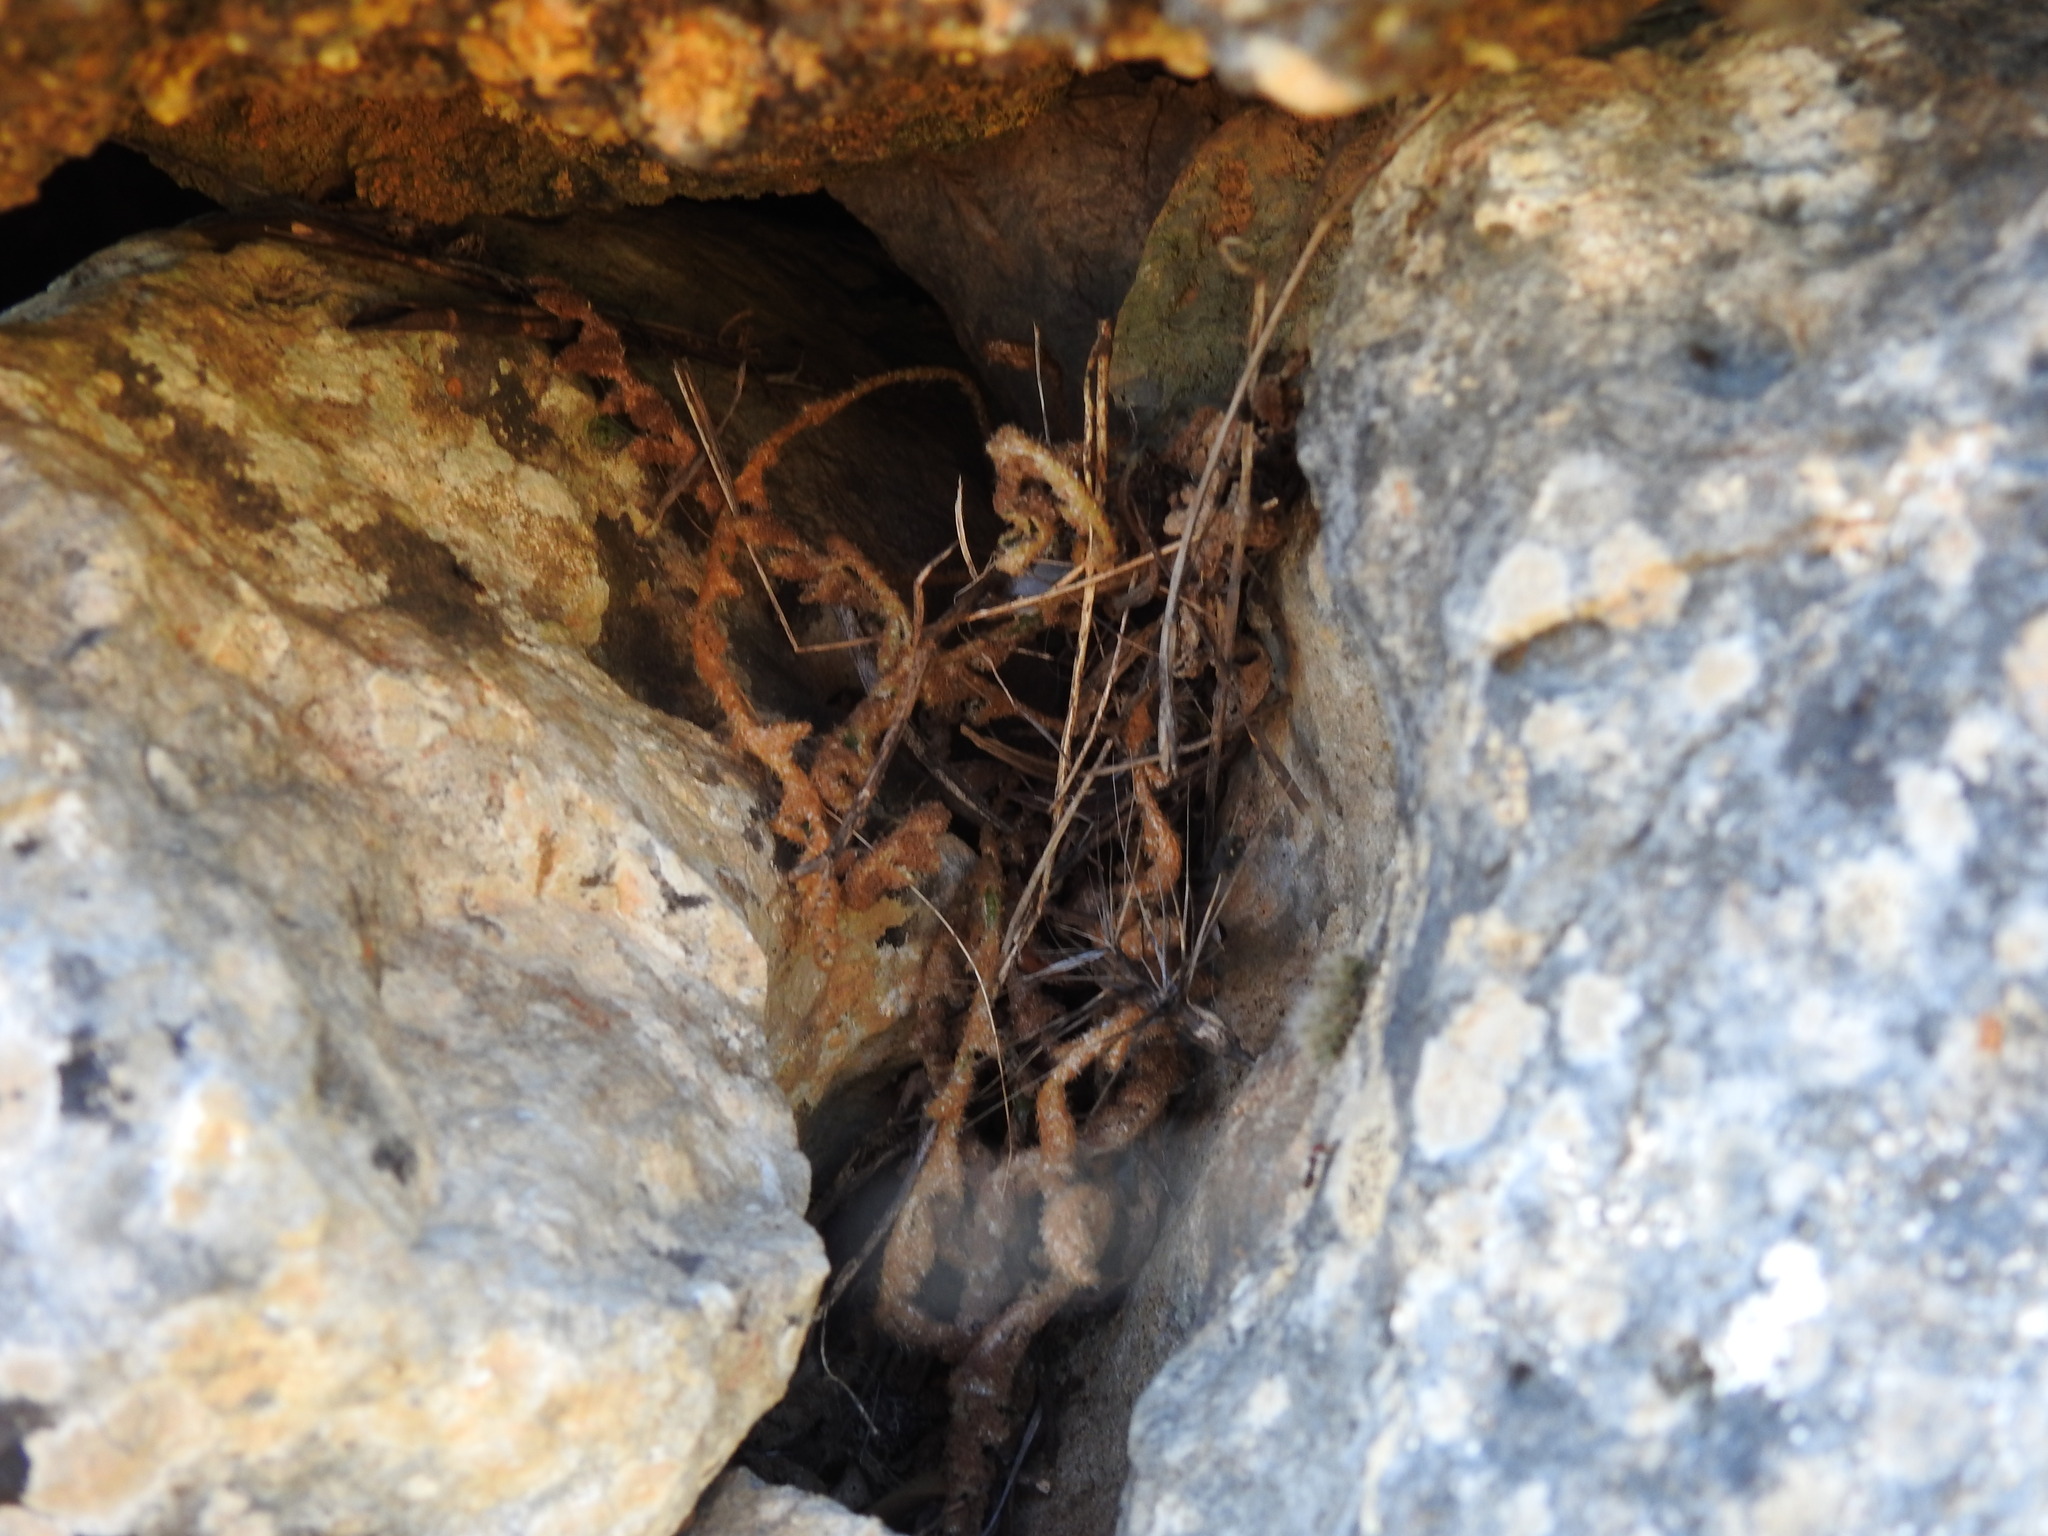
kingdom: Plantae
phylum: Tracheophyta
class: Polypodiopsida
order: Polypodiales
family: Aspleniaceae
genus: Asplenium
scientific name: Asplenium ceterach
